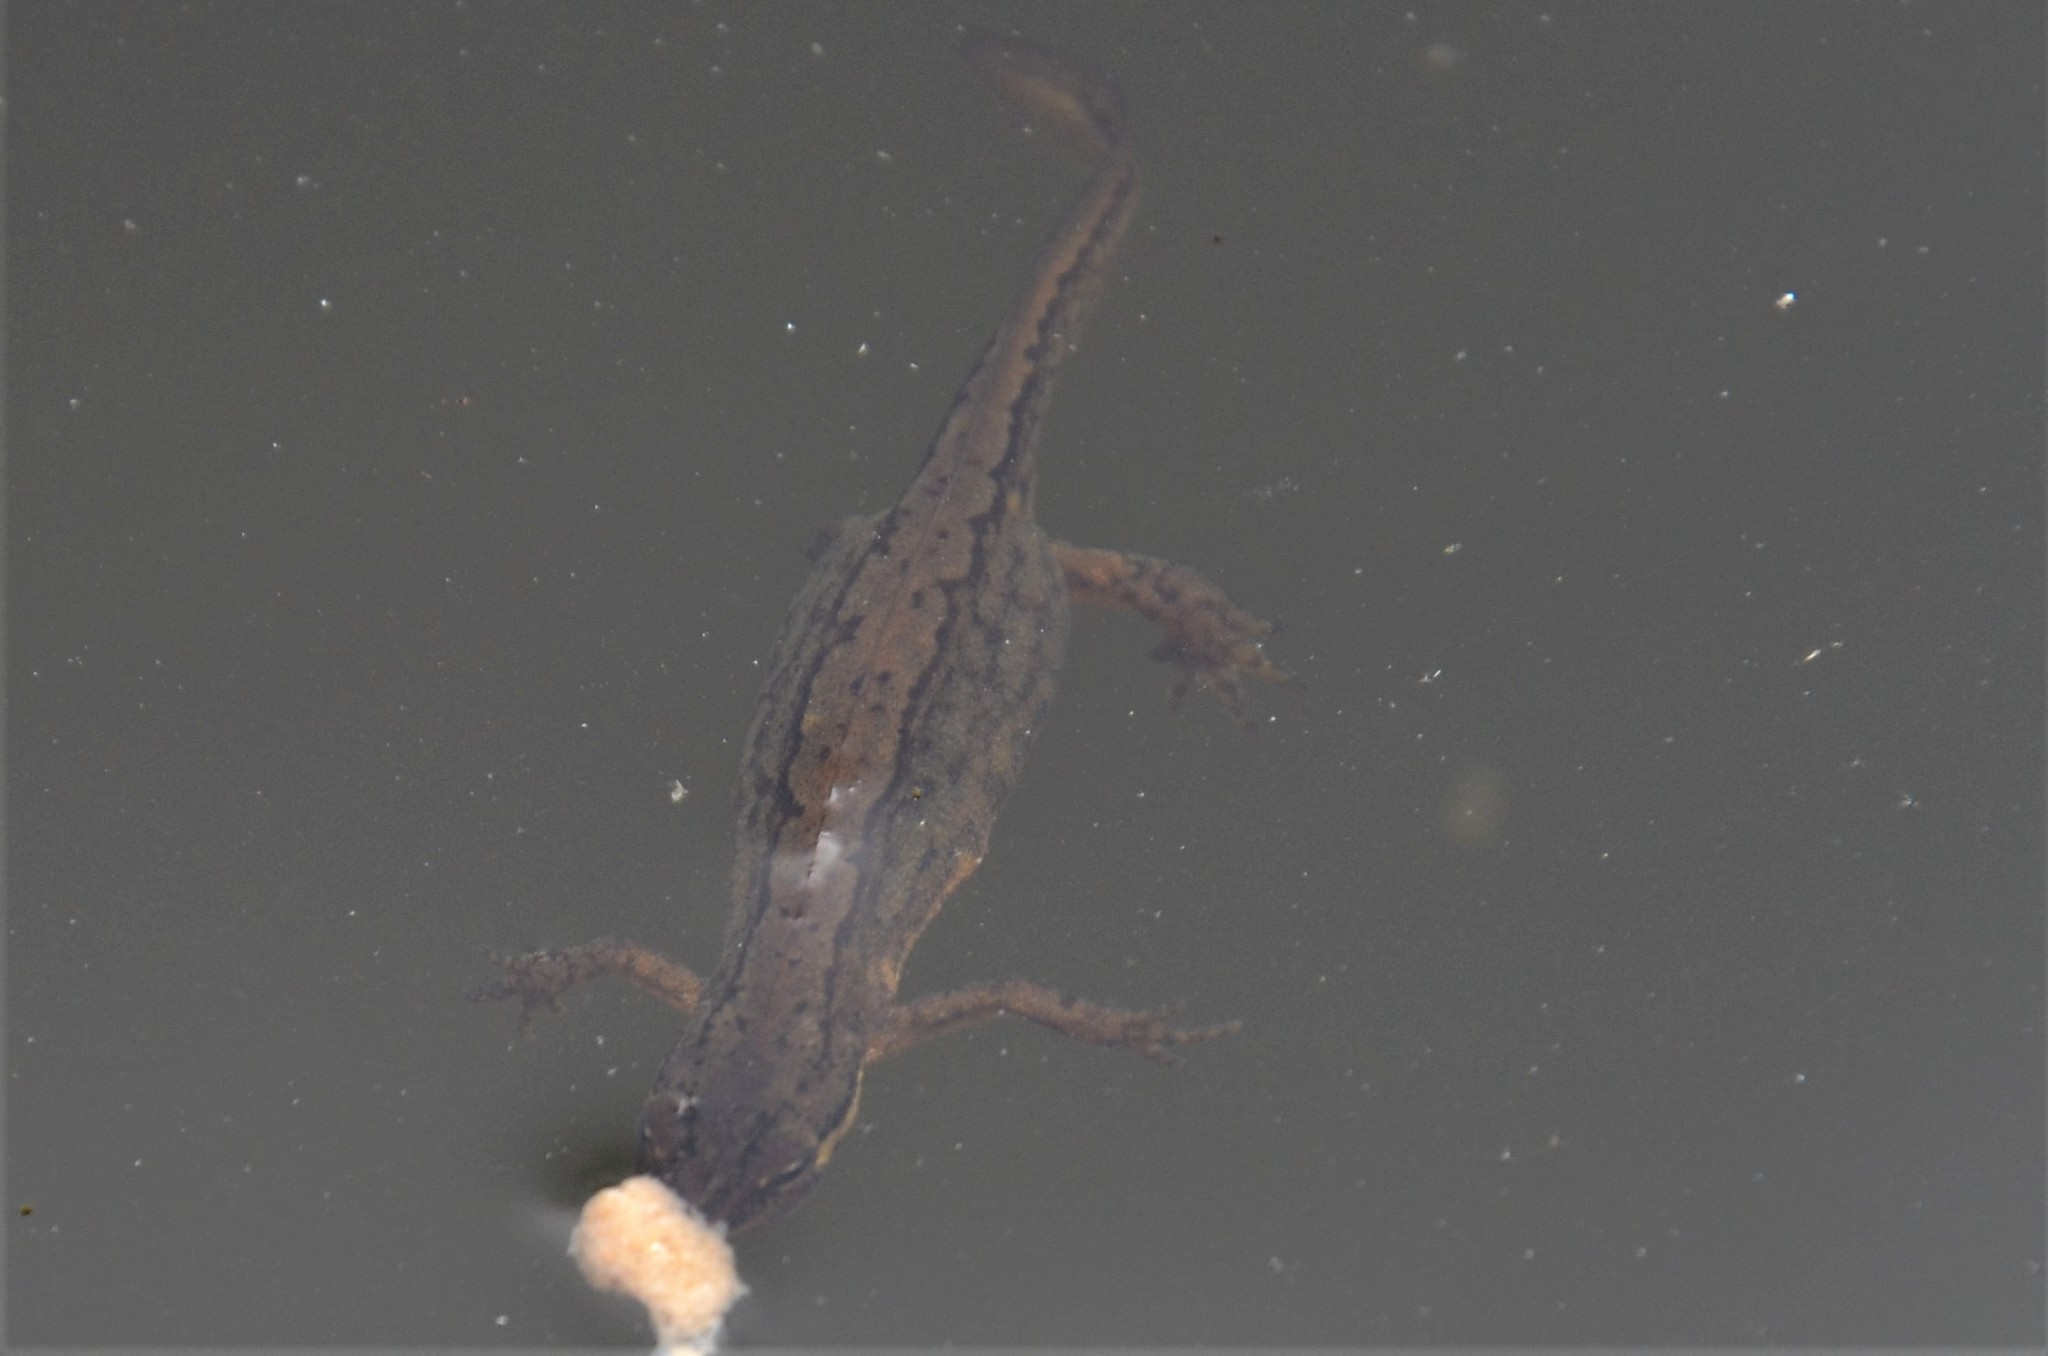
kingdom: Animalia
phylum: Chordata
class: Amphibia
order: Caudata
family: Salamandridae
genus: Lissotriton
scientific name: Lissotriton vulgaris
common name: Smooth newt
